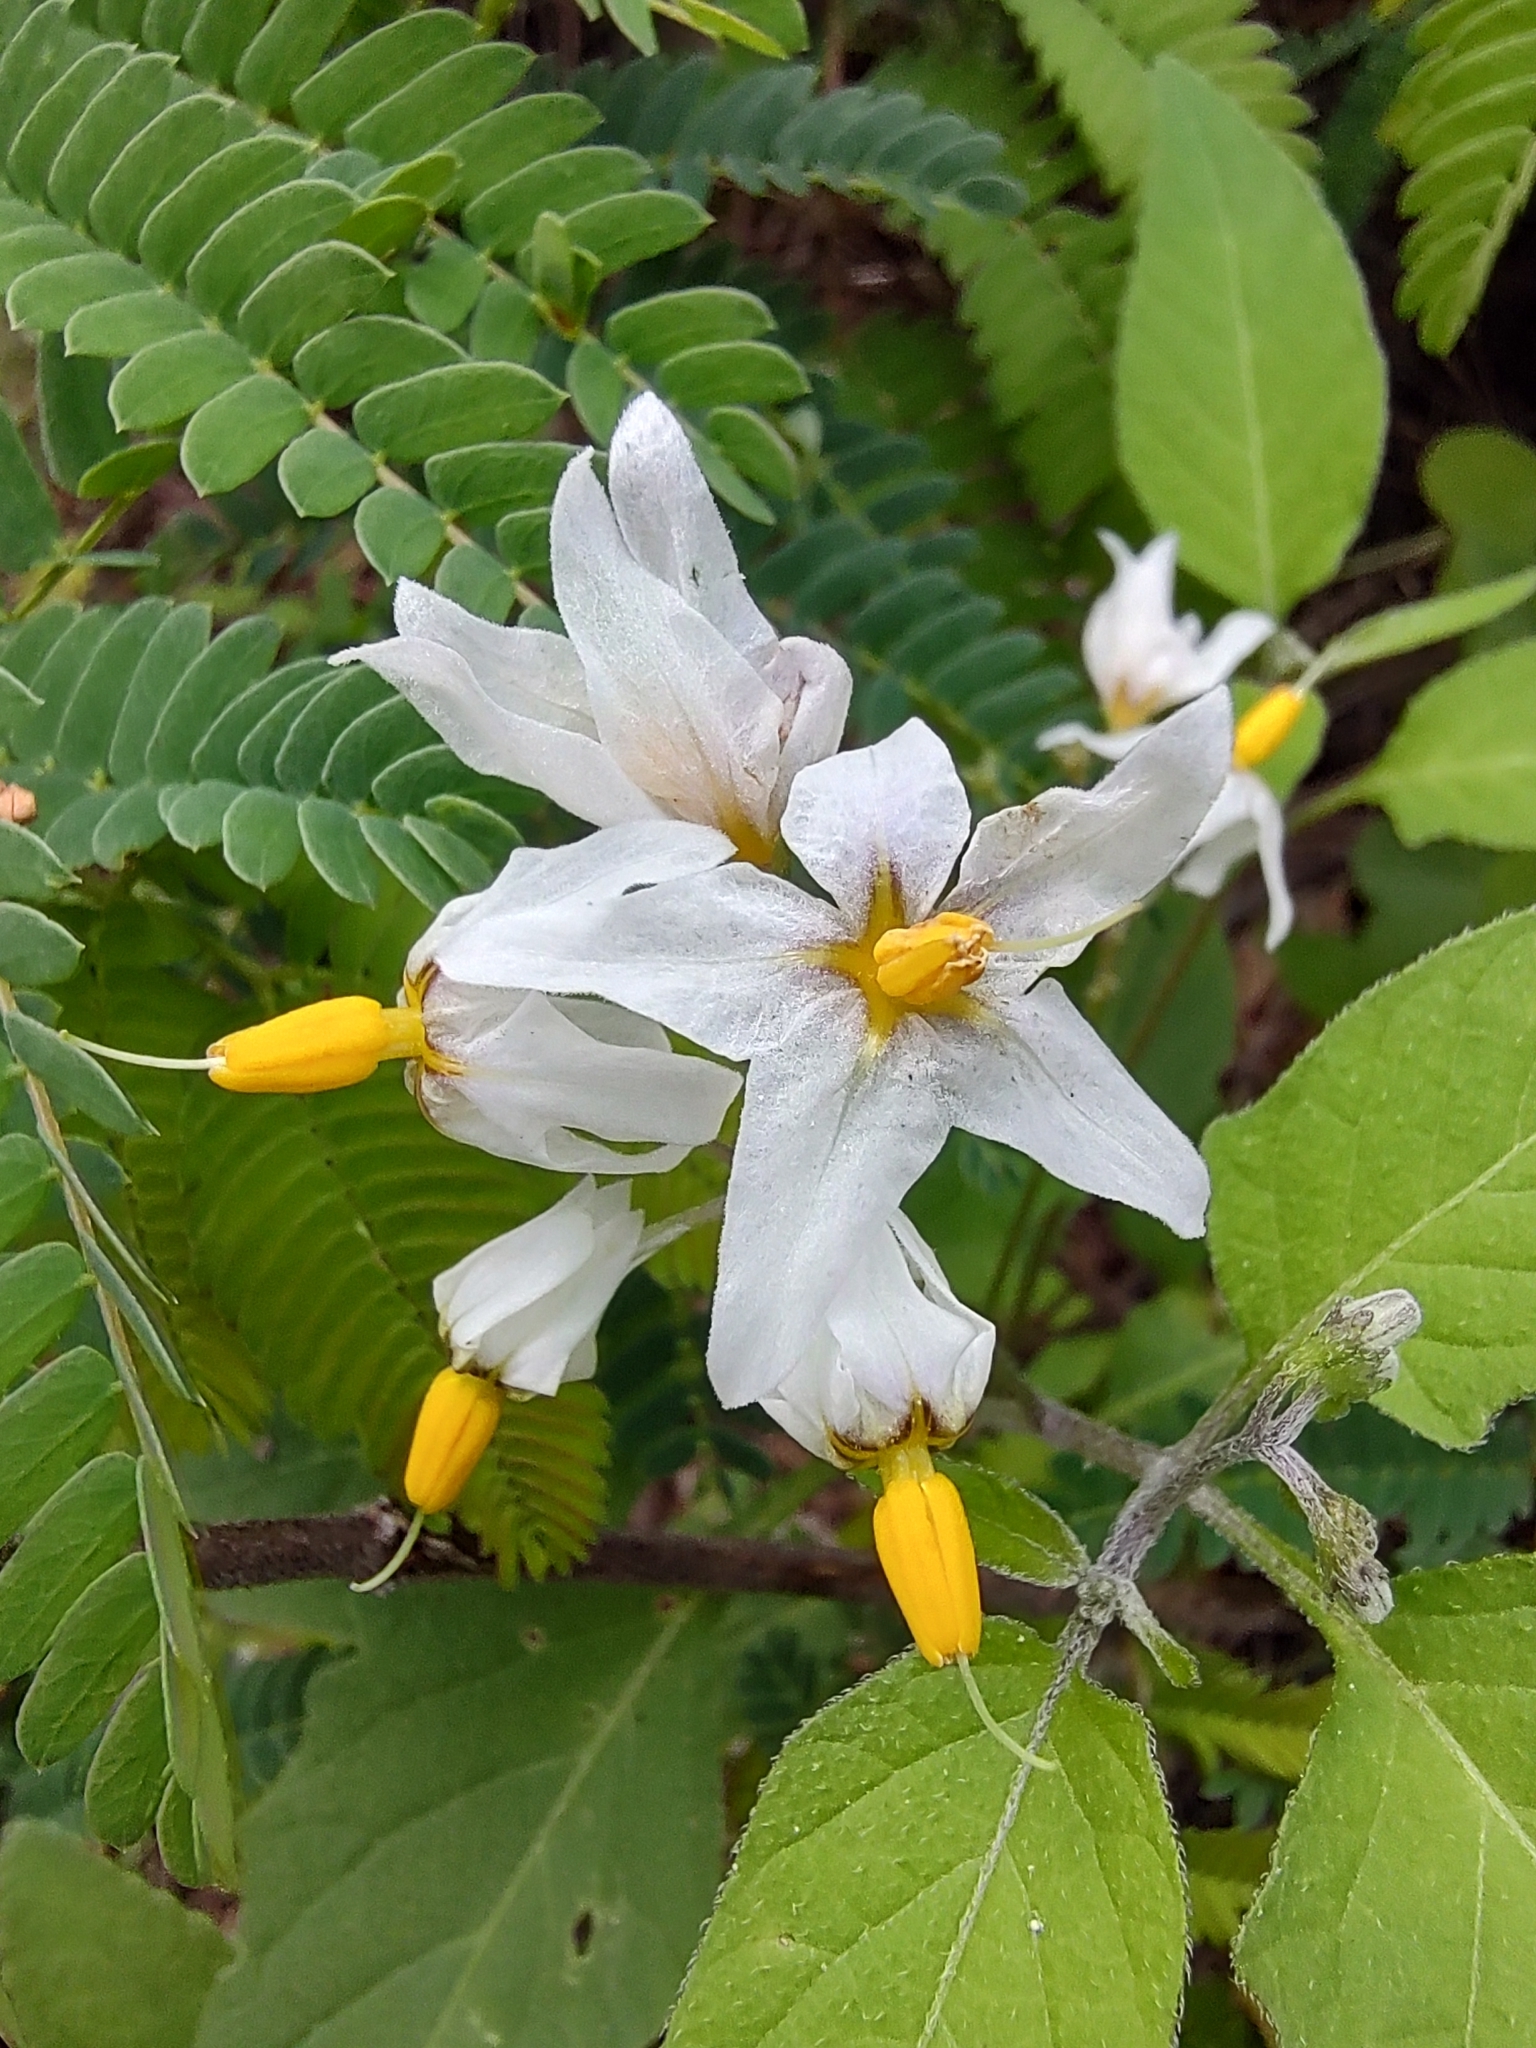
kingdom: Plantae
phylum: Tracheophyta
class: Magnoliopsida
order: Solanales
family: Solanaceae
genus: Solanum
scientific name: Solanum douglasii
